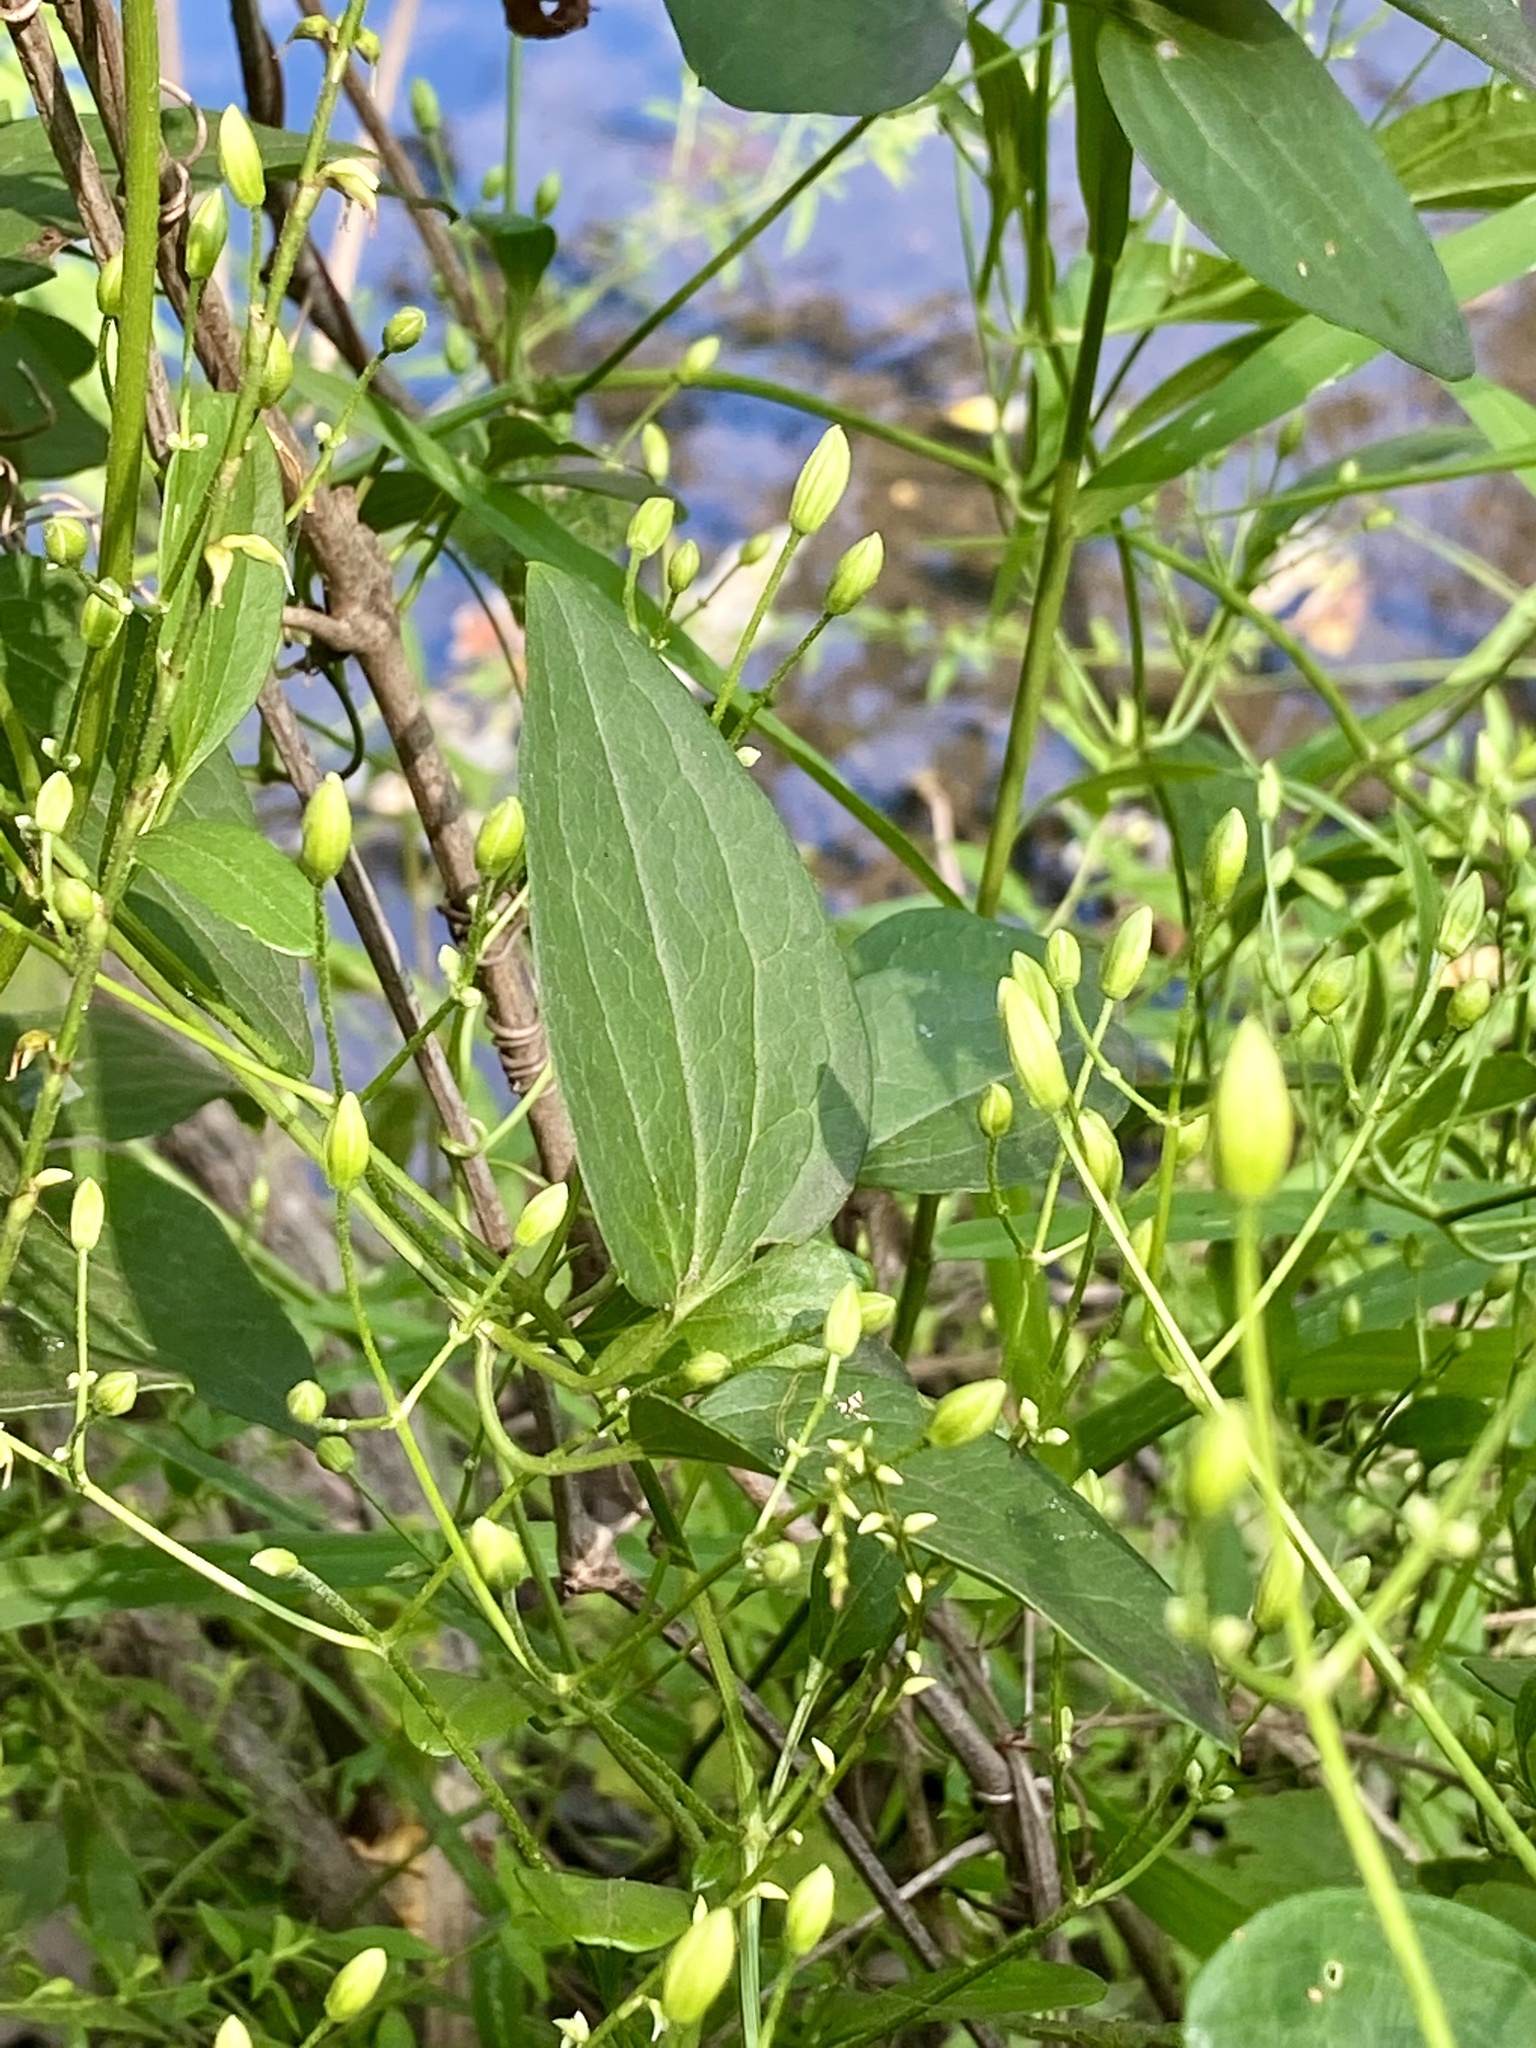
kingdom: Plantae
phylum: Tracheophyta
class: Magnoliopsida
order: Ranunculales
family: Ranunculaceae
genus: Clematis
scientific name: Clematis terniflora
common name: Sweet autumn clematis
